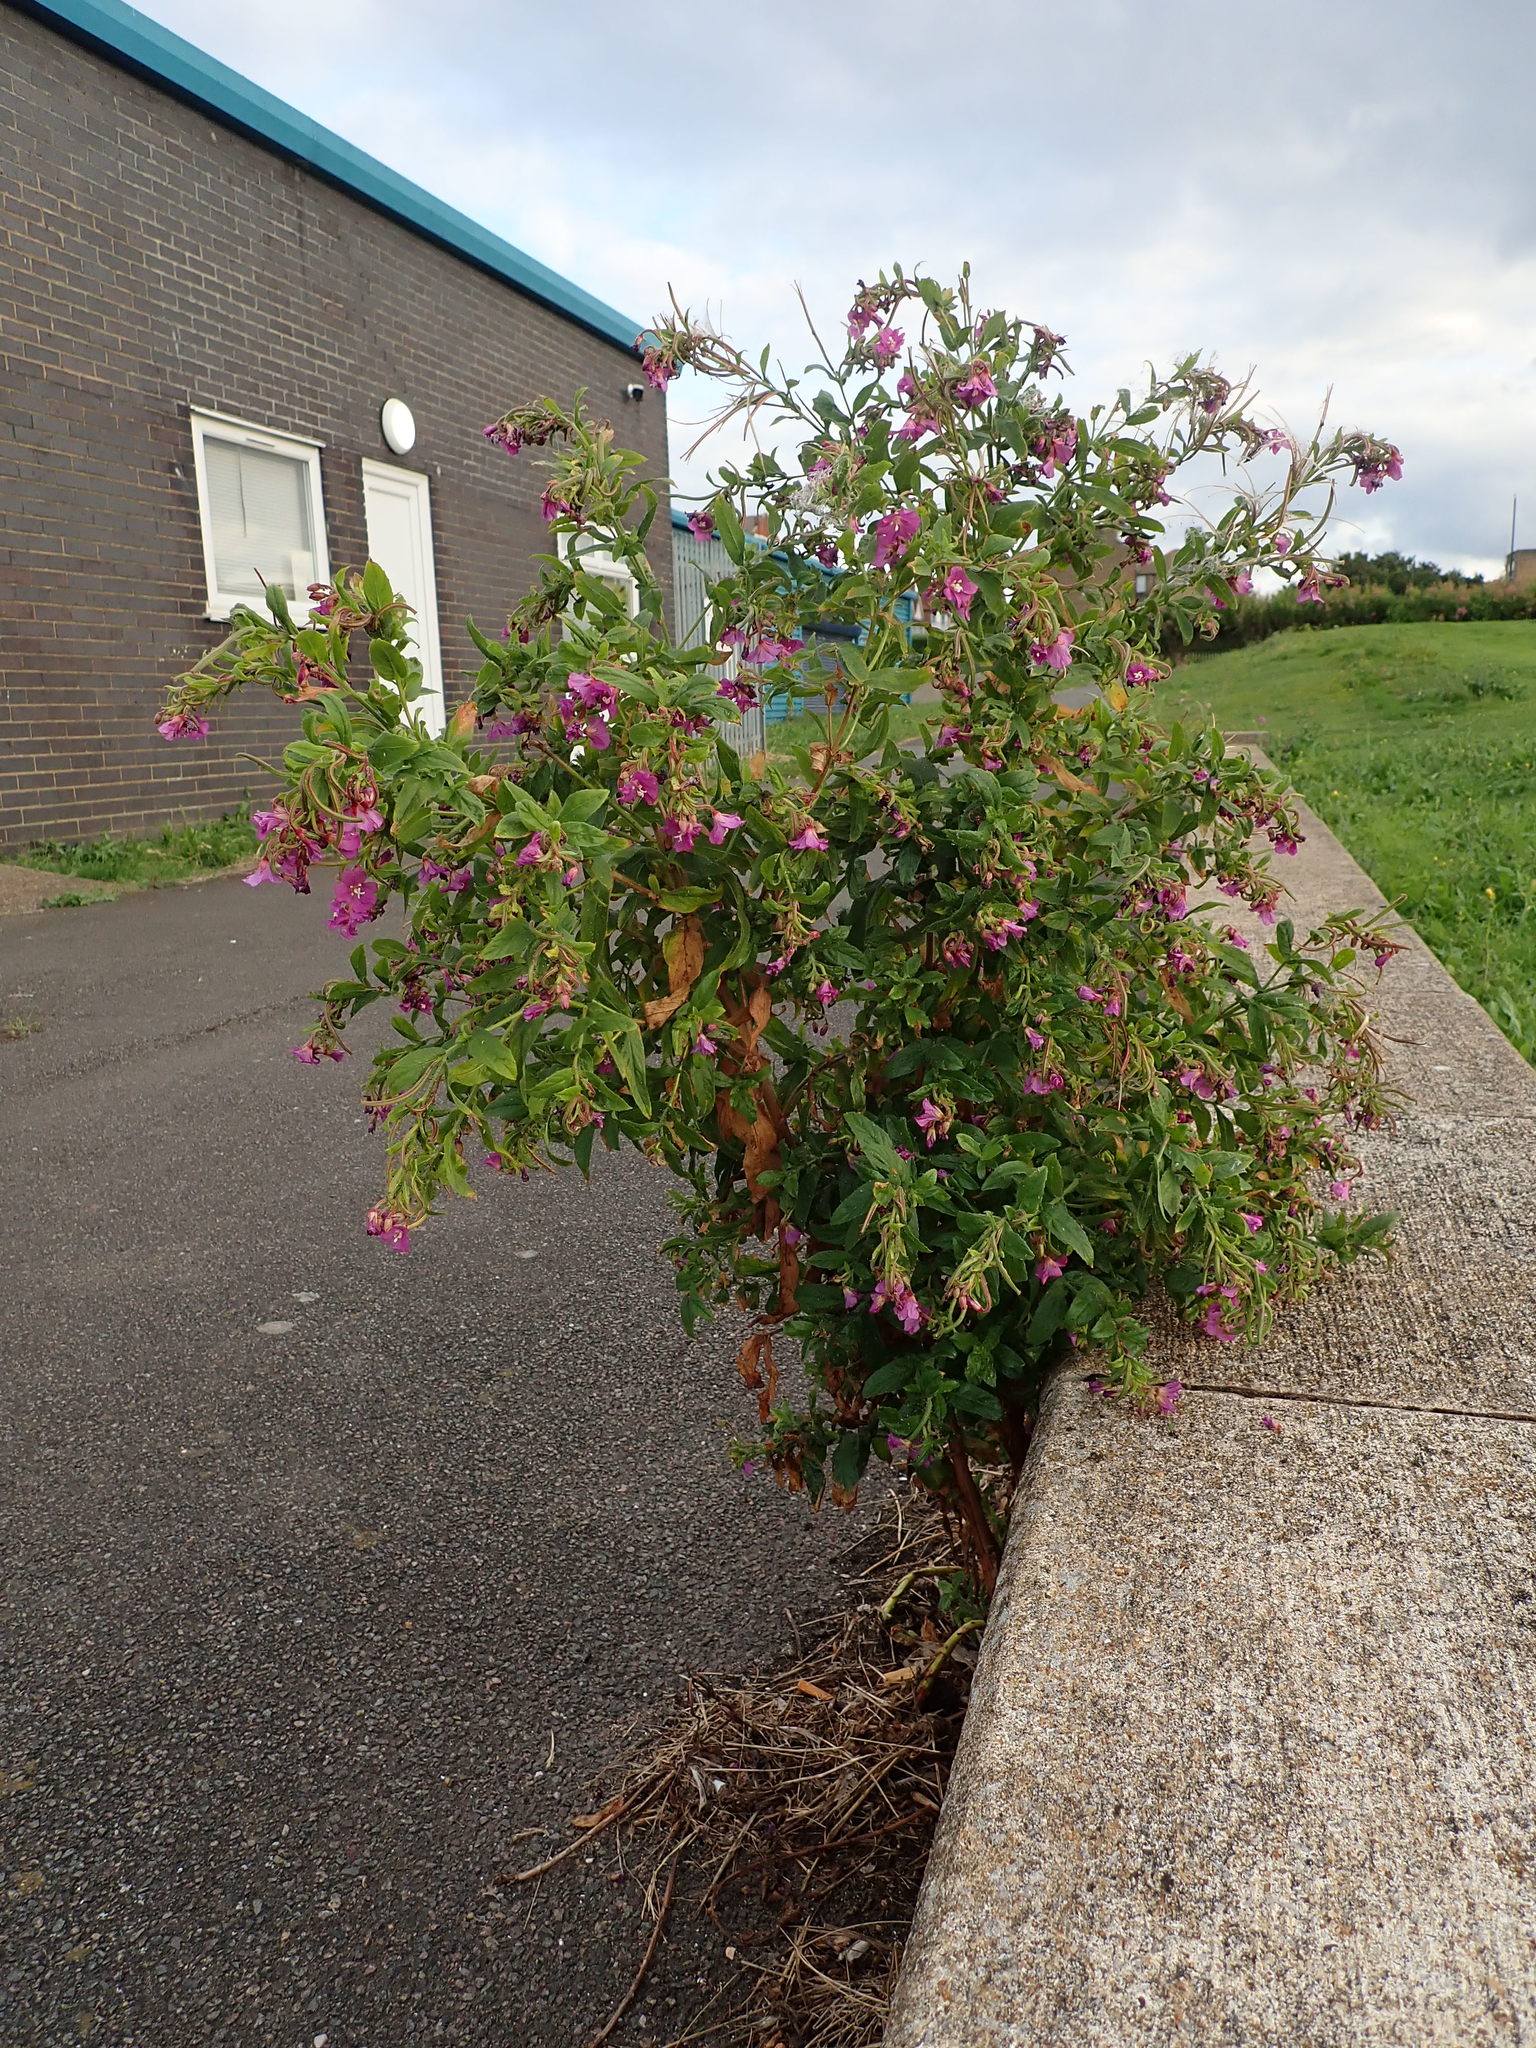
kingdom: Plantae
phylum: Tracheophyta
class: Magnoliopsida
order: Myrtales
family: Onagraceae
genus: Epilobium
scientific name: Epilobium hirsutum
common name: Great willowherb
